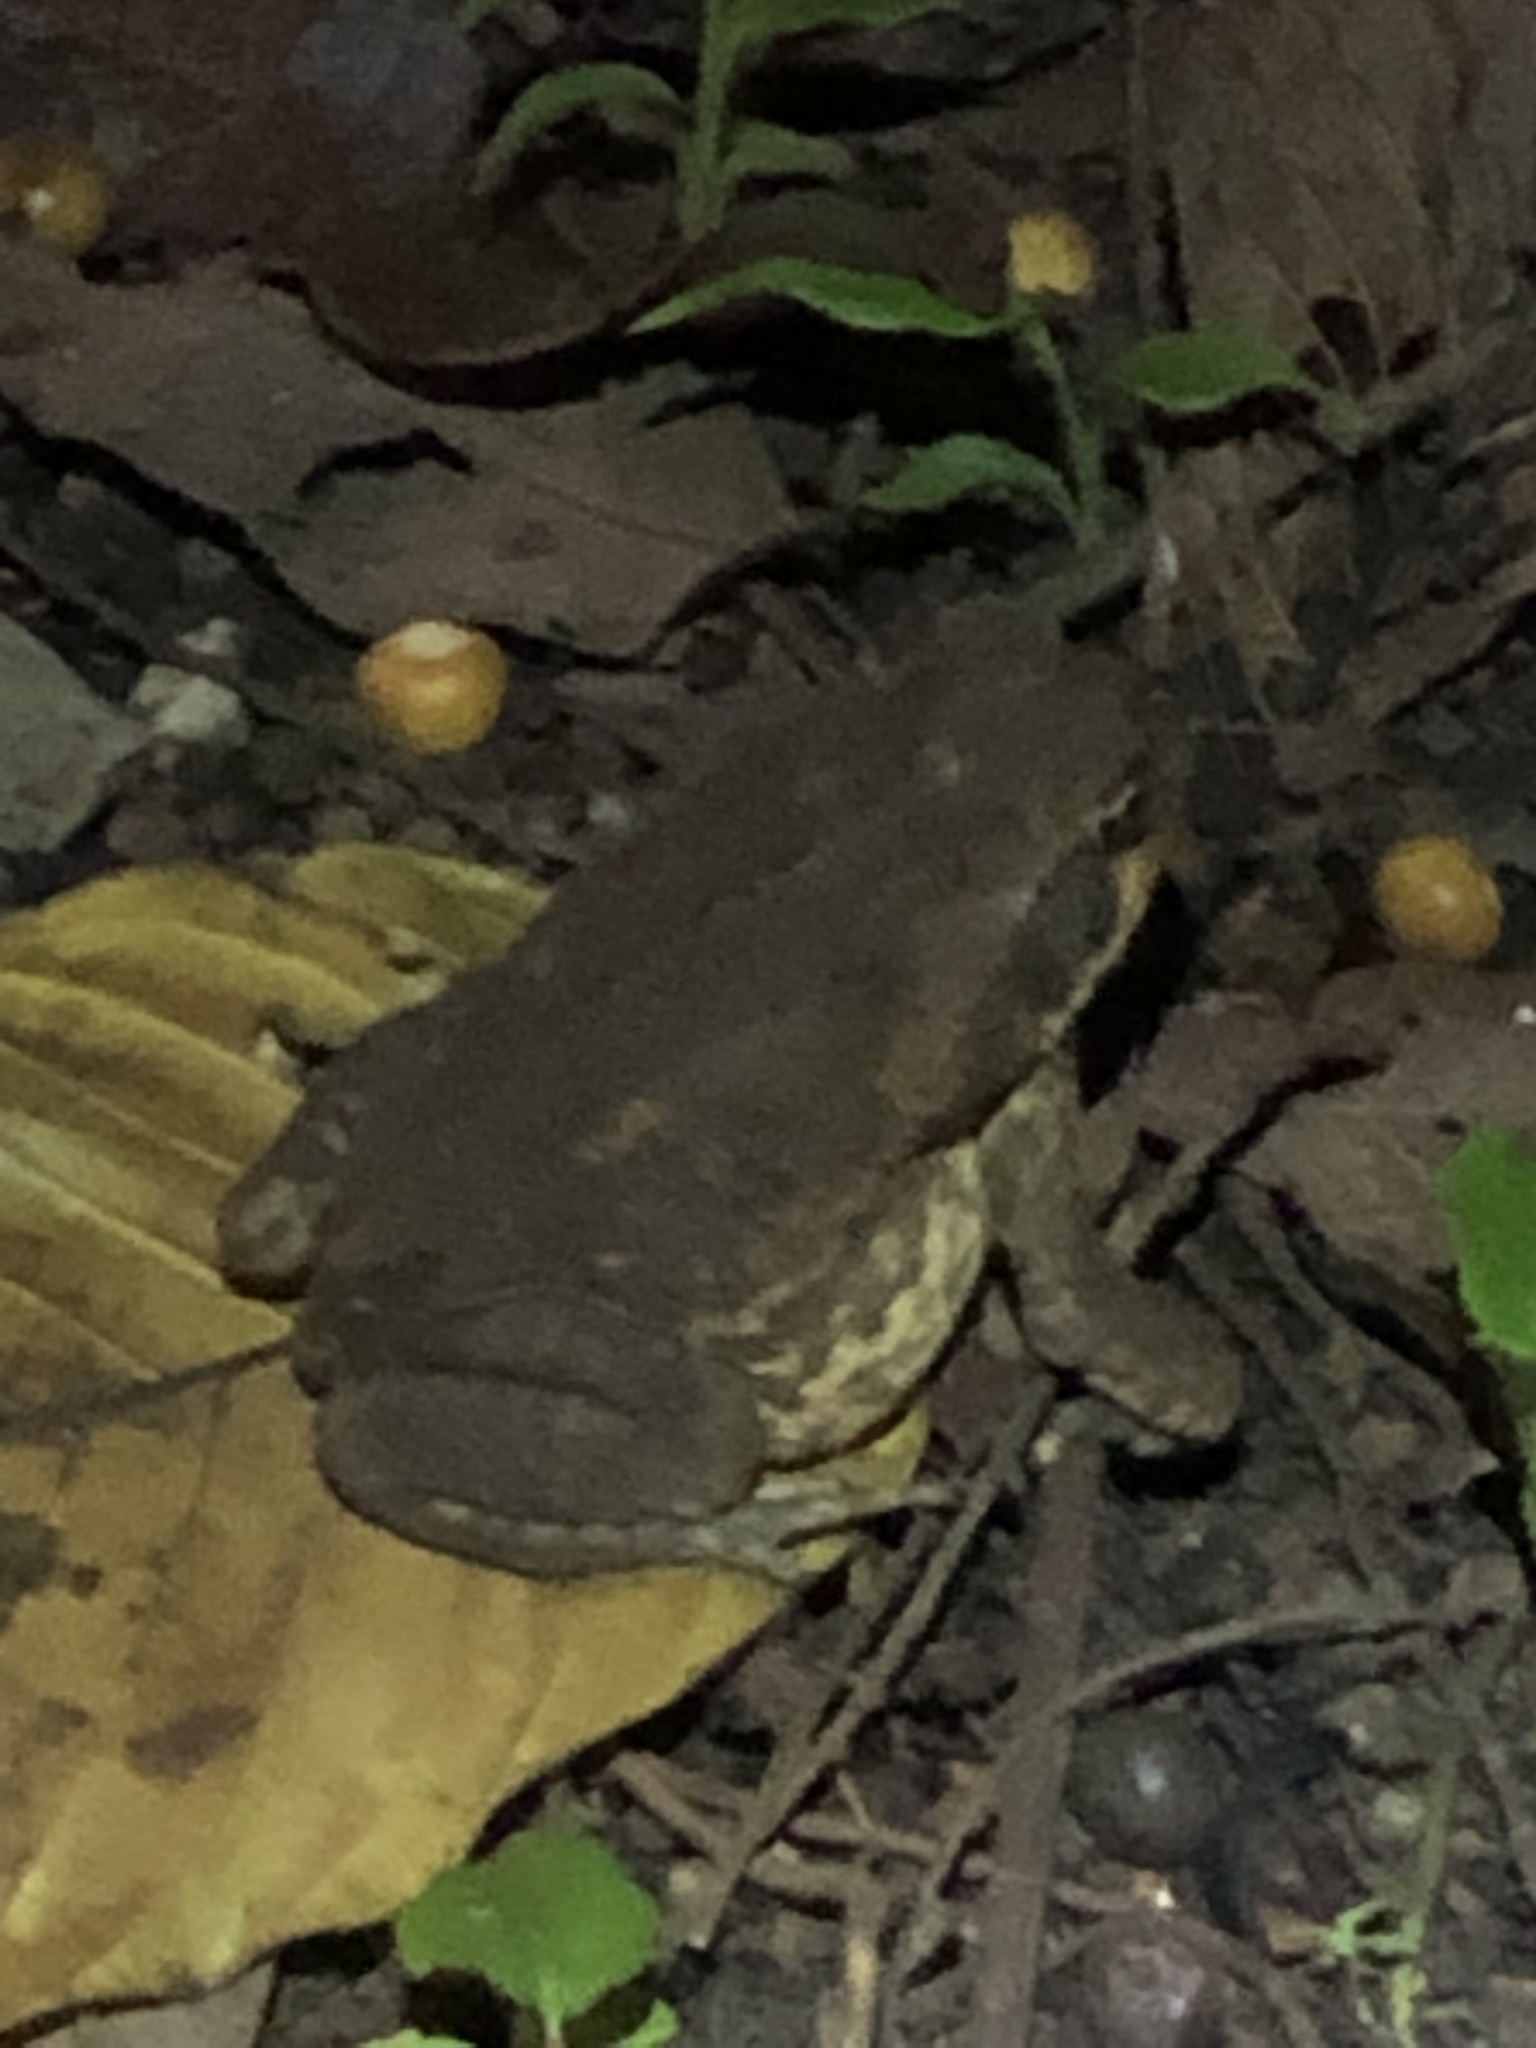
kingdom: Animalia
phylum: Chordata
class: Amphibia
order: Anura
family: Bufonidae
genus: Rhinella
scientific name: Rhinella horribilis
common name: Mesoamerican cane toad
